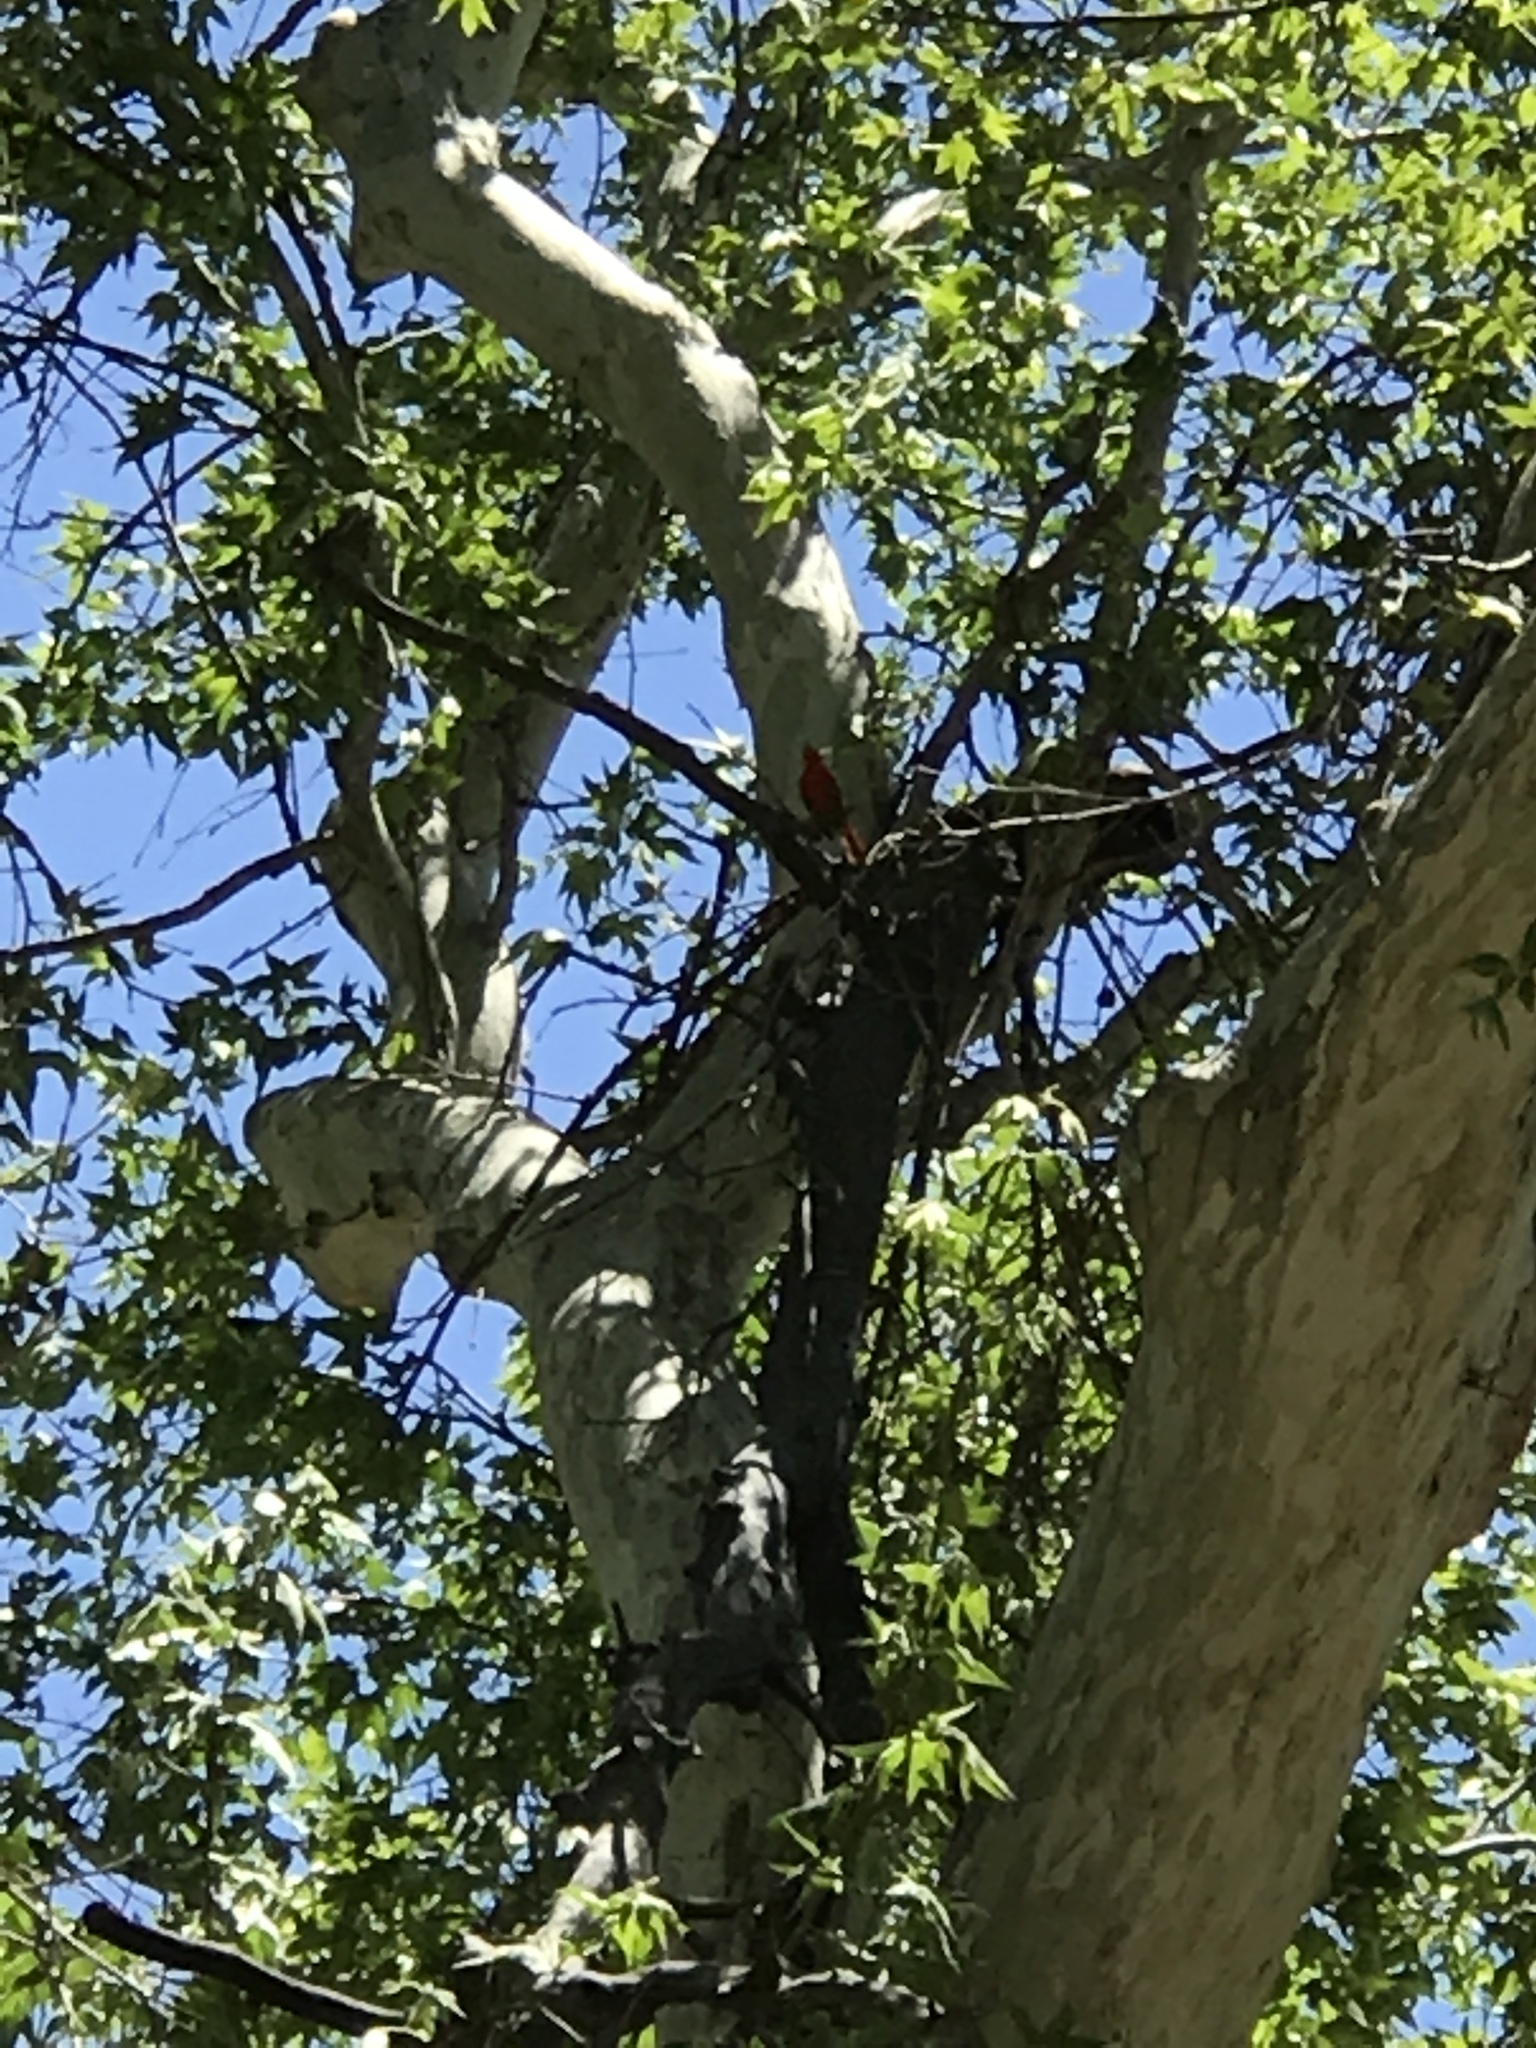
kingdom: Animalia
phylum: Chordata
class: Aves
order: Passeriformes
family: Cardinalidae
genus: Cardinalis
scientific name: Cardinalis cardinalis
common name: Northern cardinal
